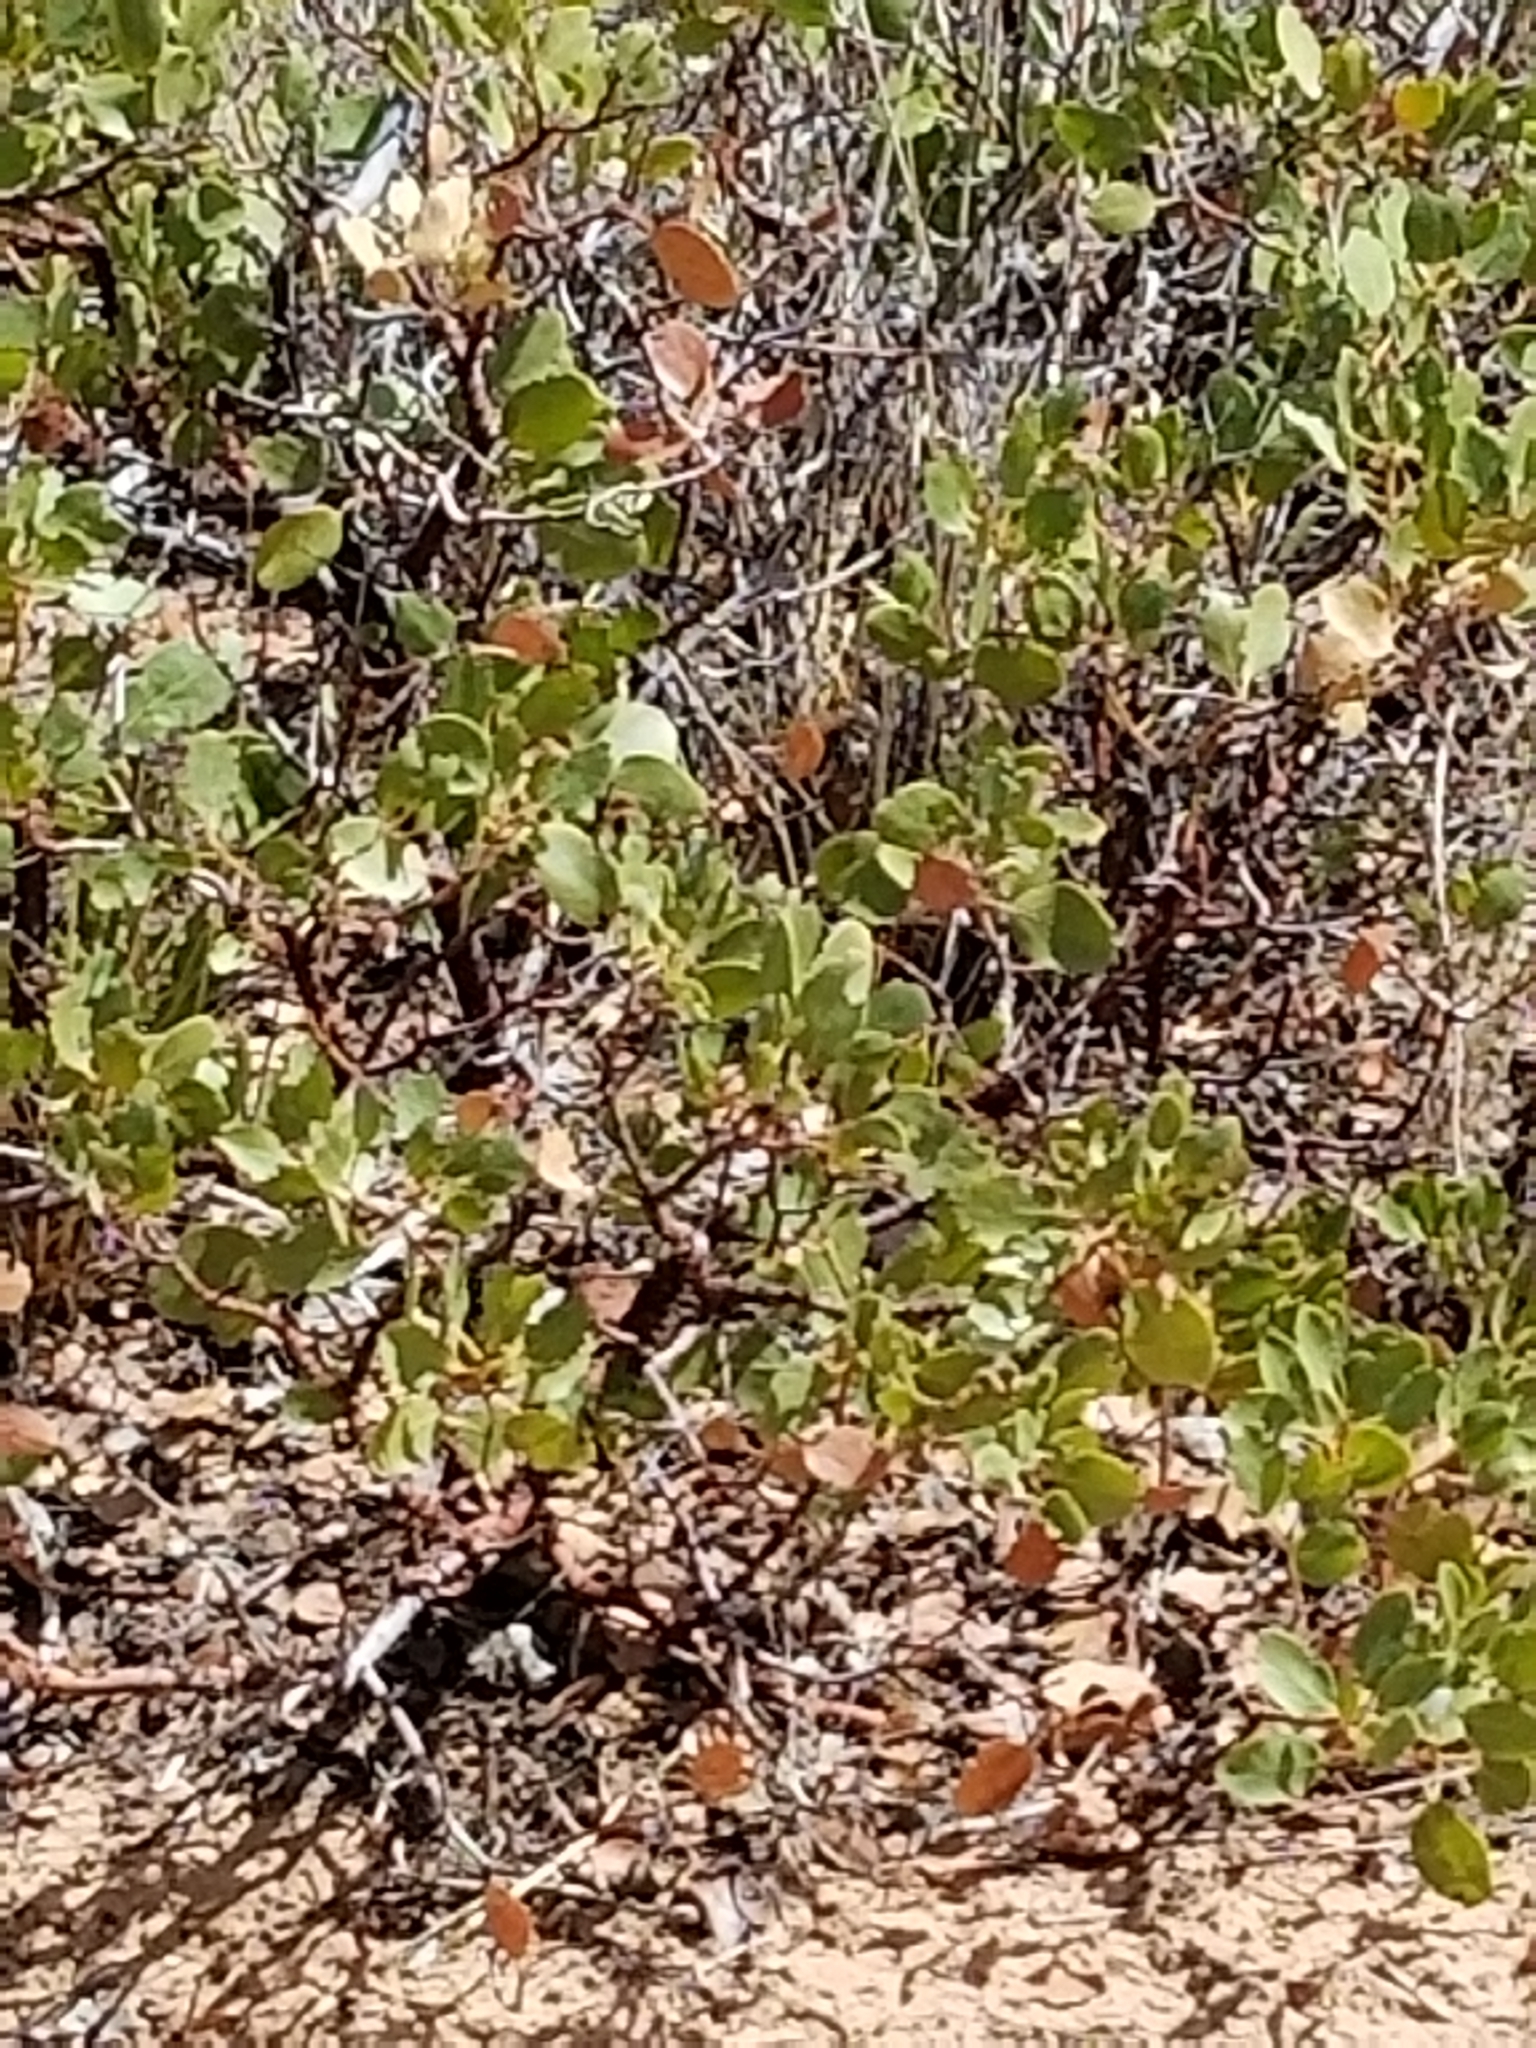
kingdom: Plantae
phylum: Tracheophyta
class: Magnoliopsida
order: Ericales
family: Ericaceae
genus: Arctostaphylos
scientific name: Arctostaphylos patula
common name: Green-leaf manzanita
